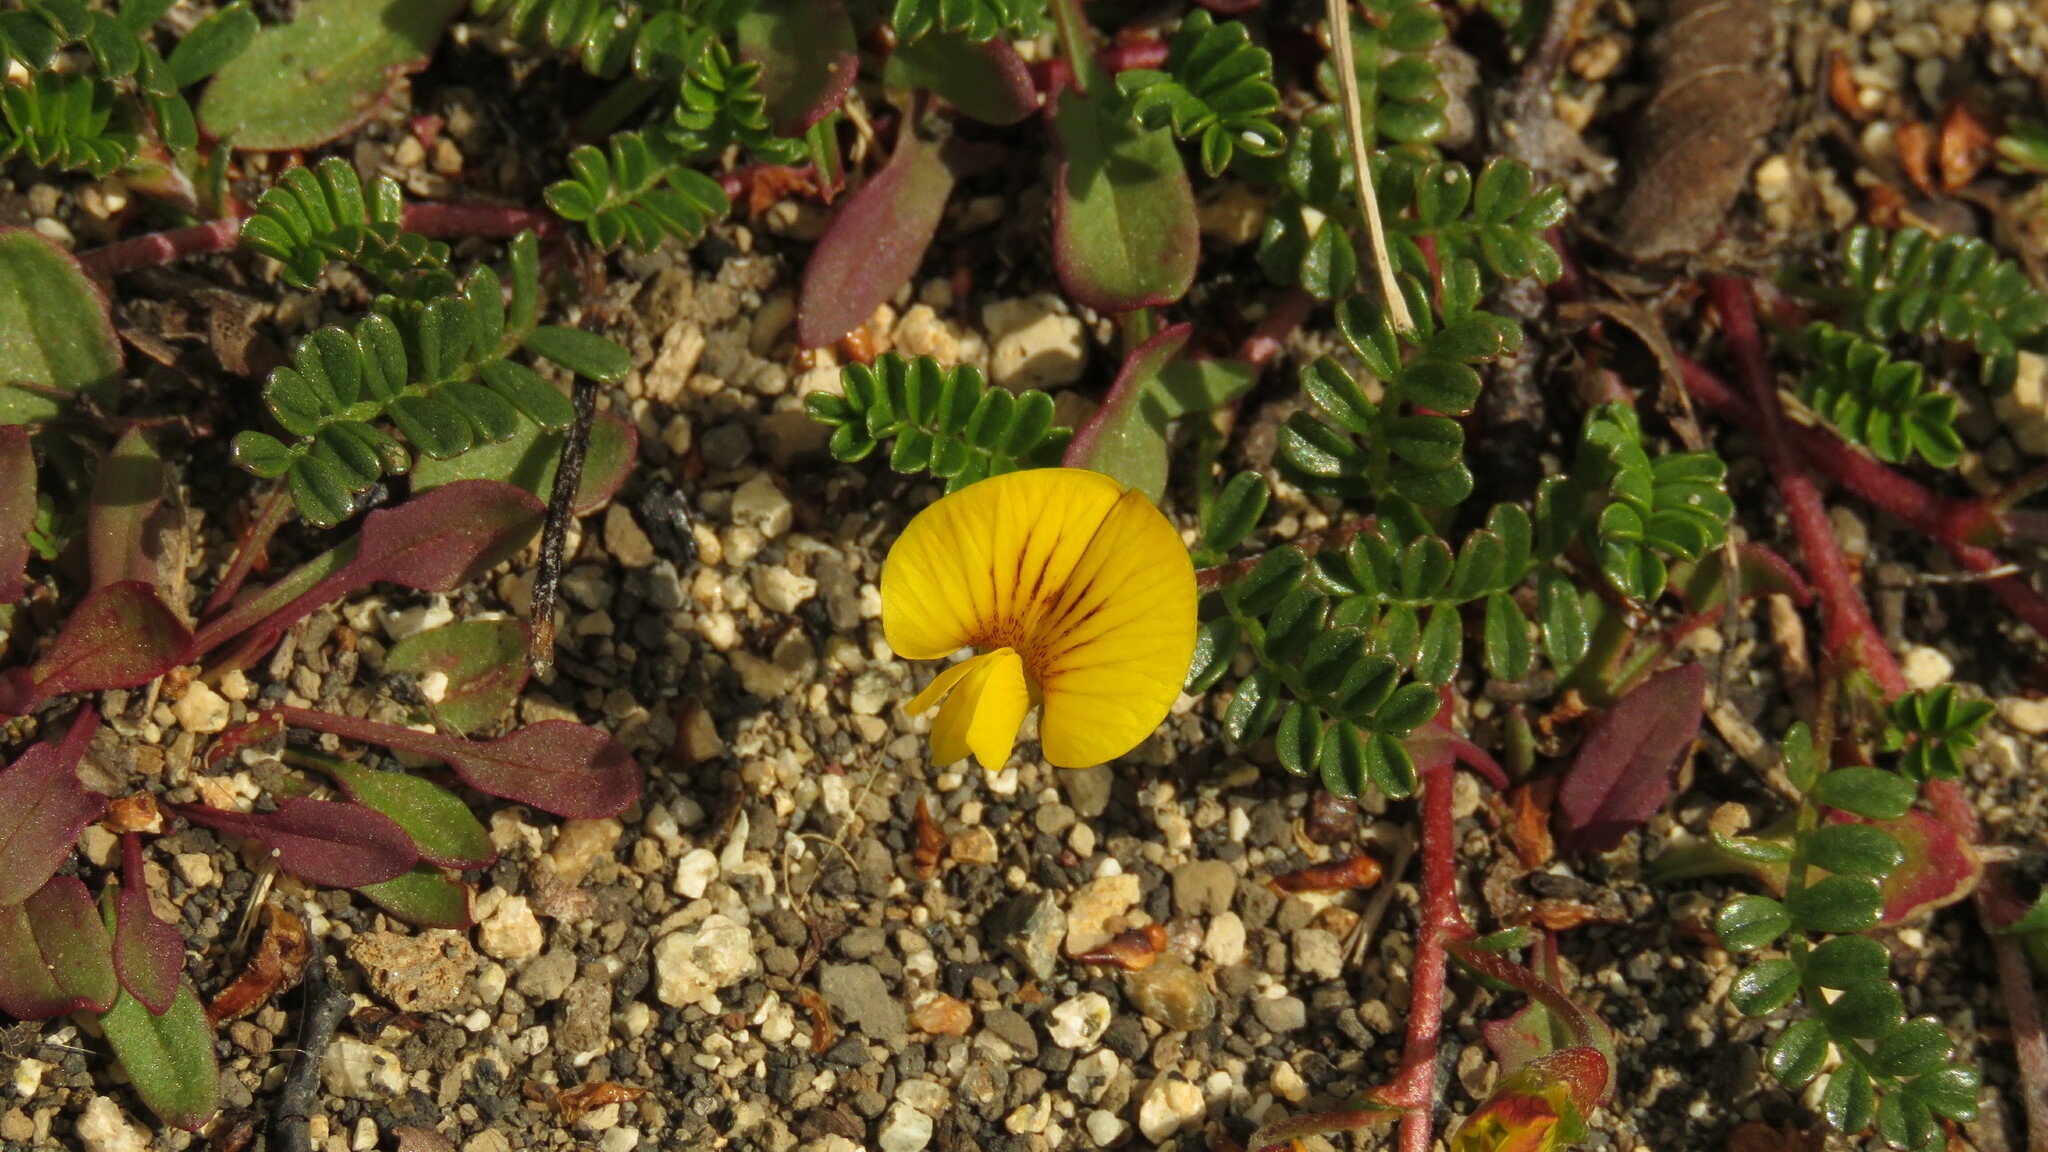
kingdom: Plantae
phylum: Tracheophyta
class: Magnoliopsida
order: Fabales
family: Fabaceae
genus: Adesmia
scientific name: Adesmia retusa
